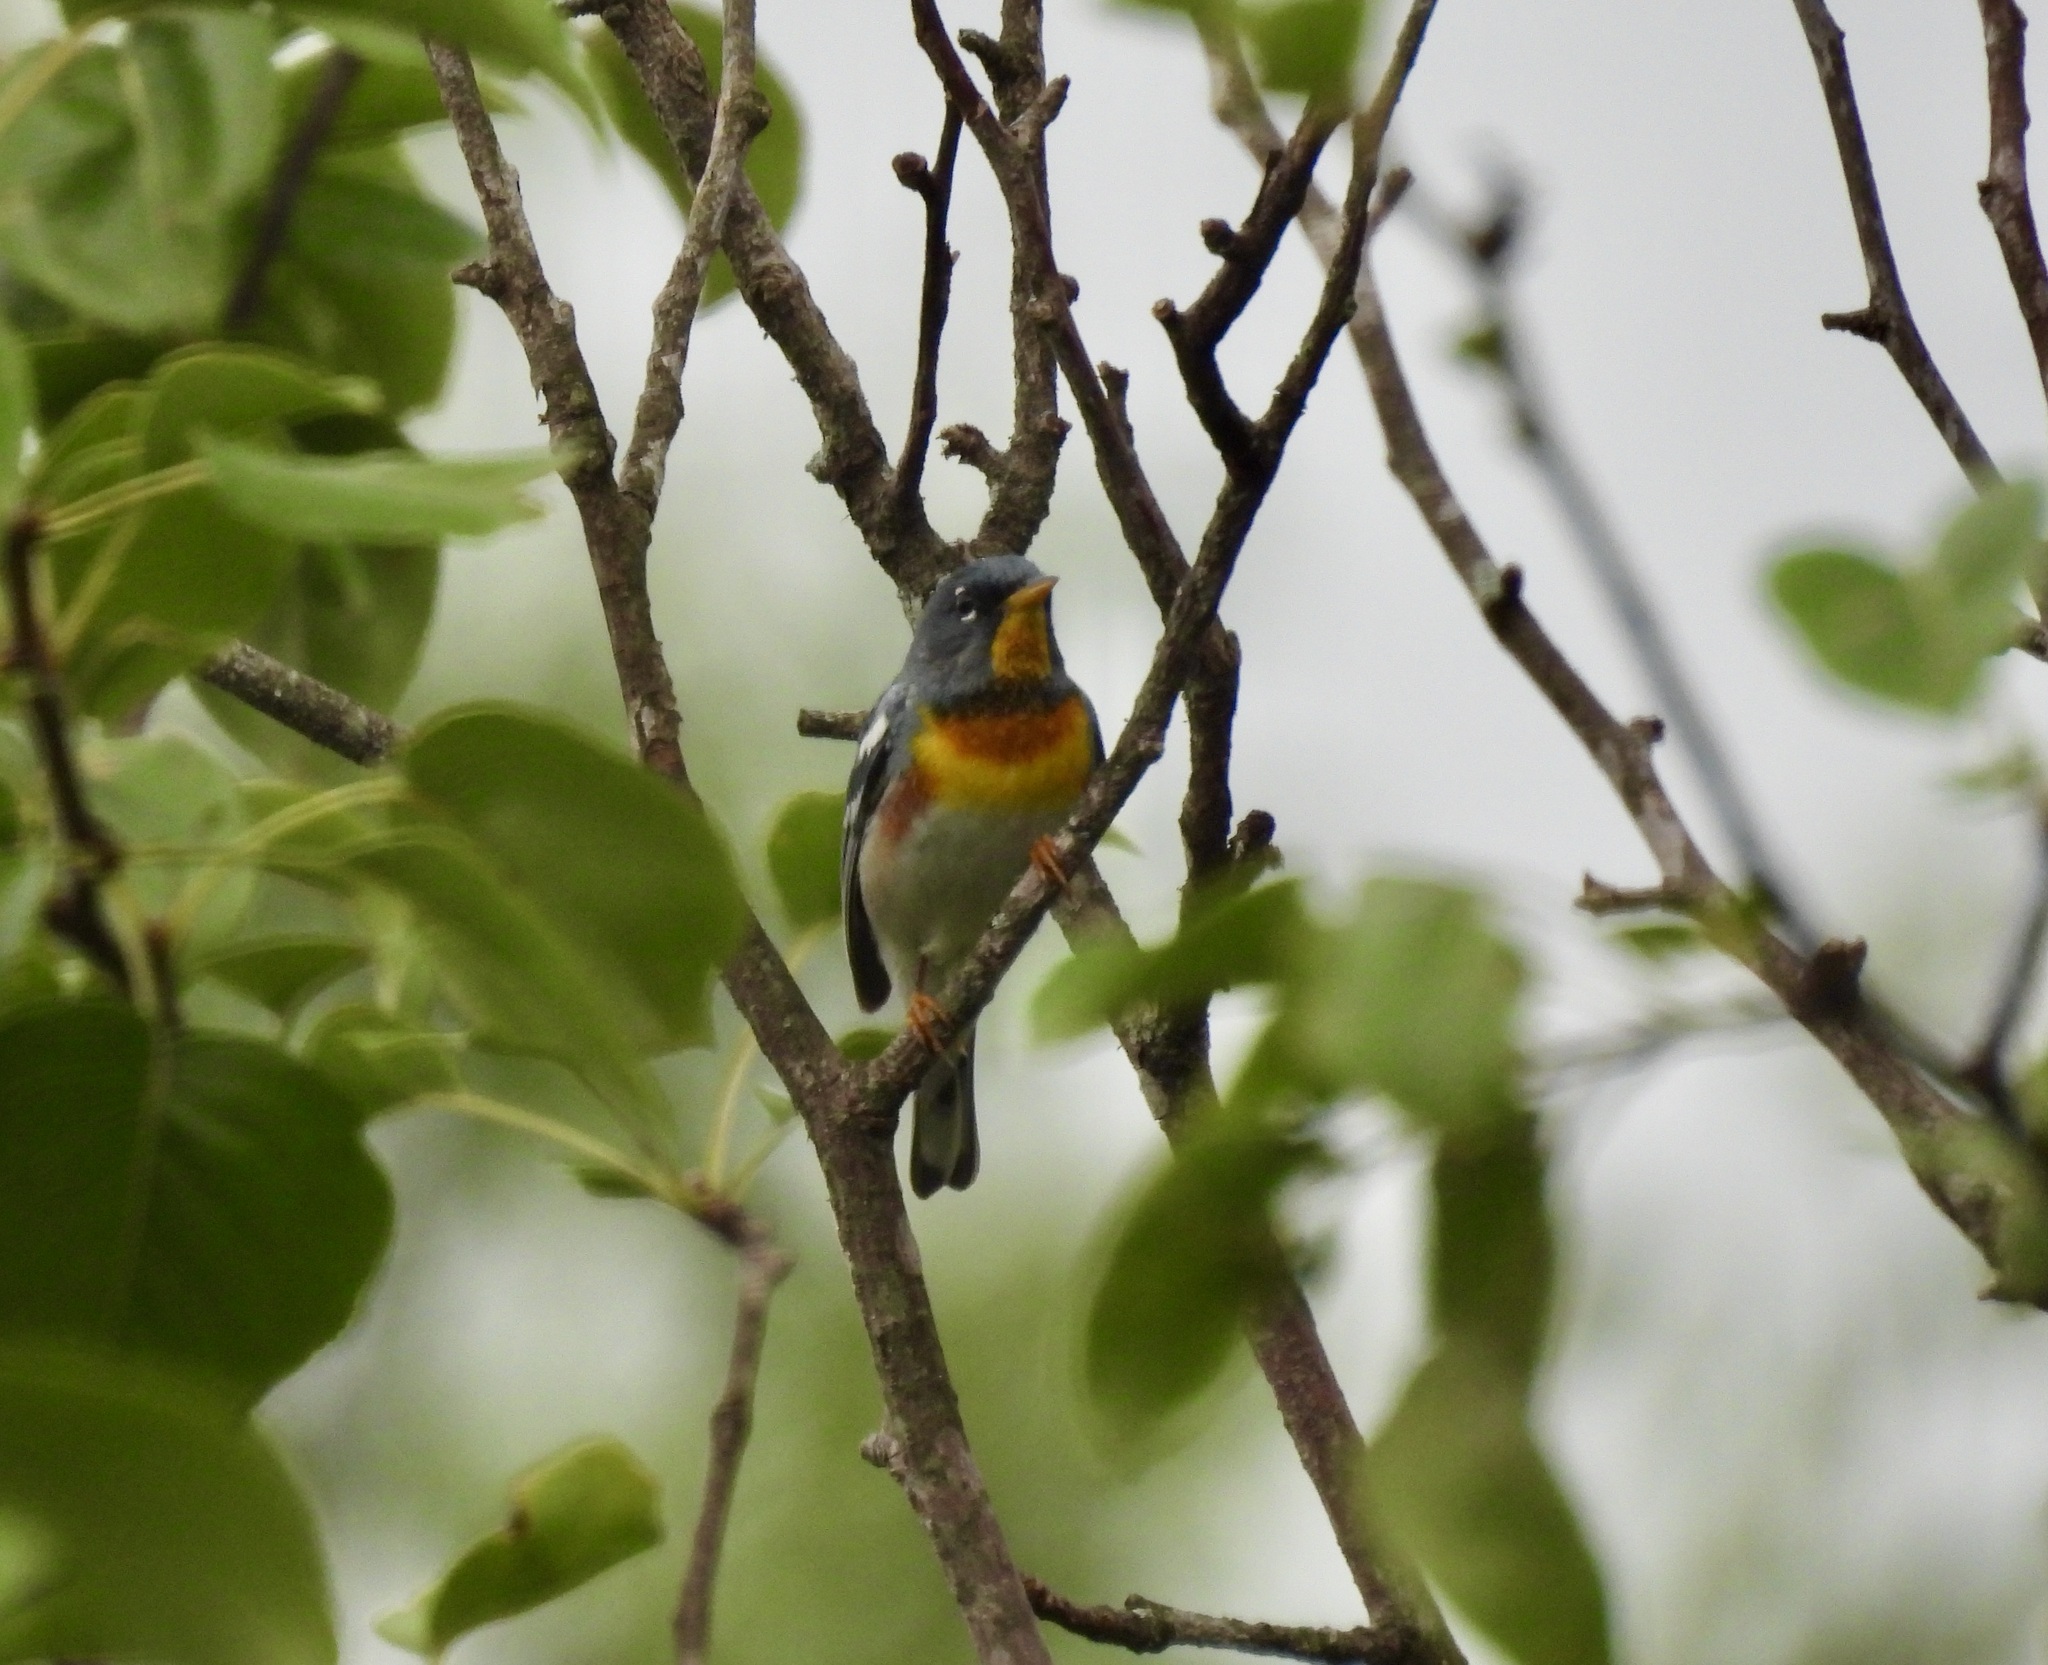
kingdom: Animalia
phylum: Chordata
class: Aves
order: Passeriformes
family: Parulidae
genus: Setophaga
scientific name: Setophaga americana
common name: Northern parula
